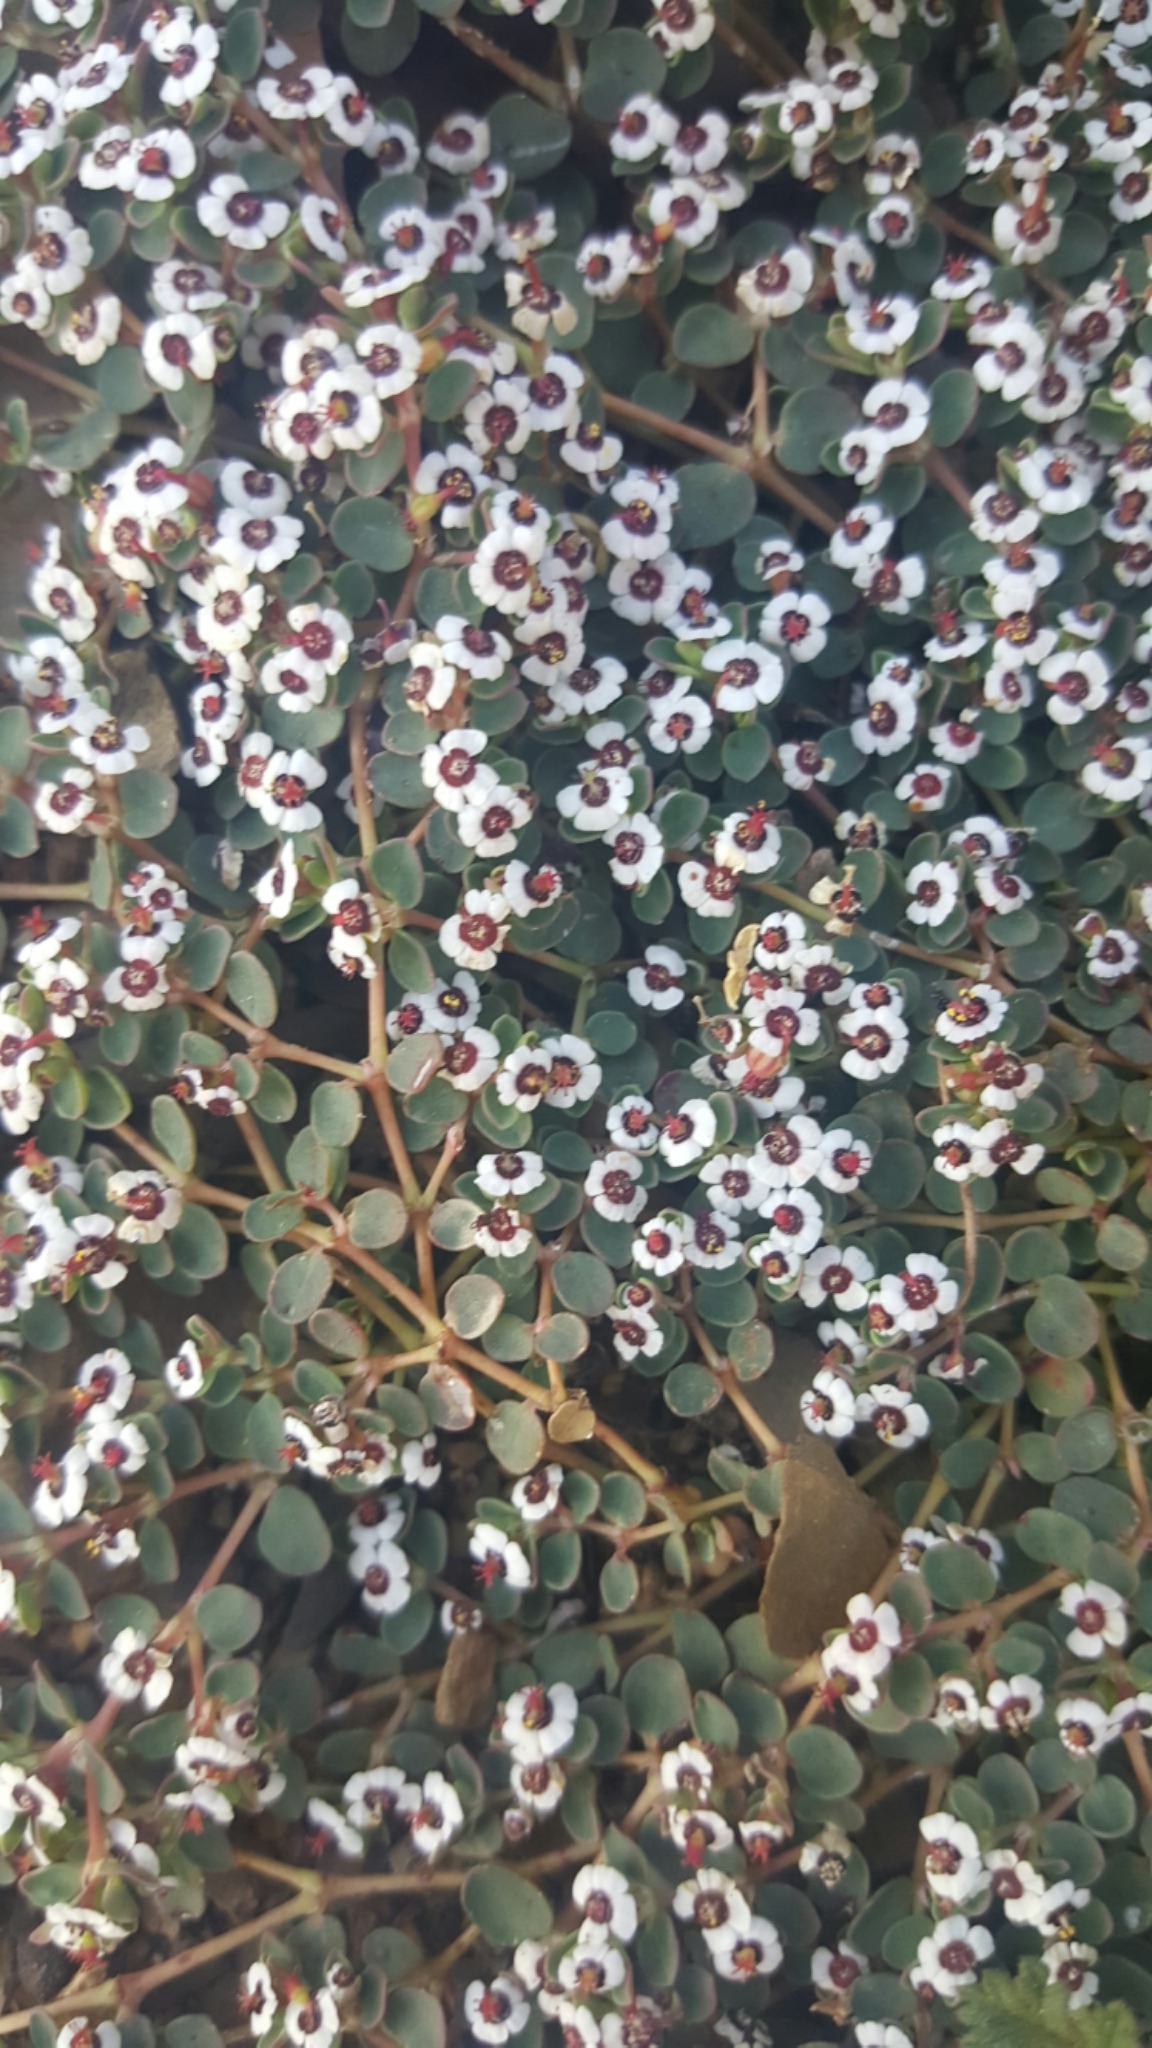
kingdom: Plantae
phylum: Tracheophyta
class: Magnoliopsida
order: Malpighiales
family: Euphorbiaceae
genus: Euphorbia
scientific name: Euphorbia polycarpa
